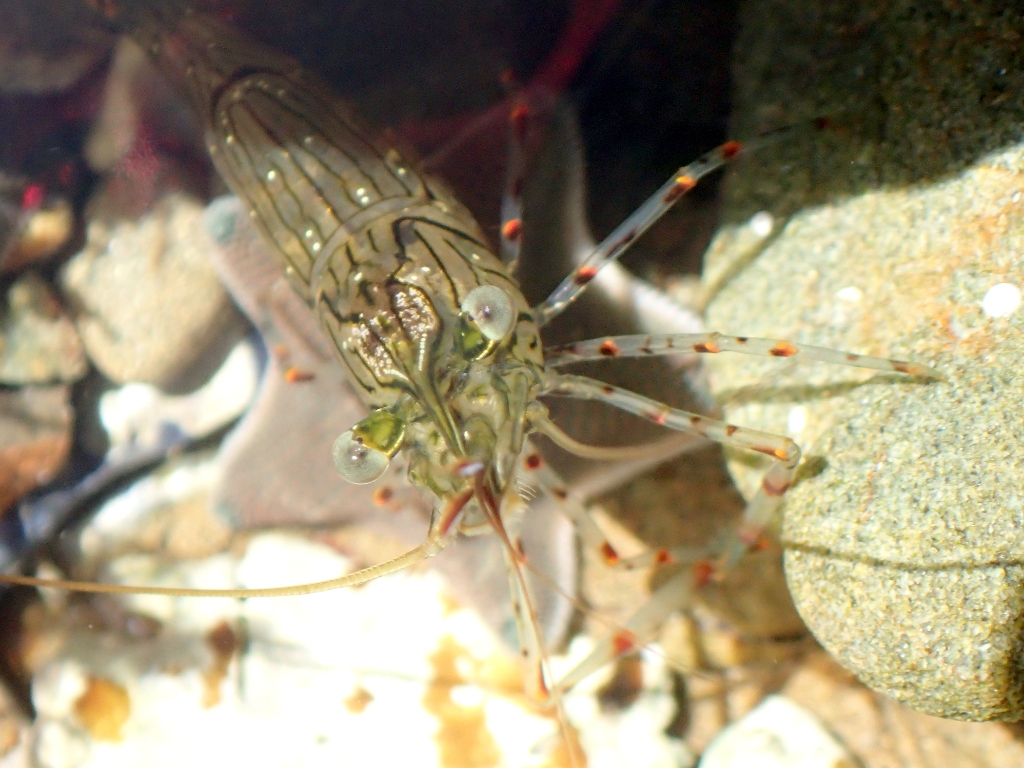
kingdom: Animalia
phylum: Arthropoda
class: Malacostraca
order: Decapoda
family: Palaemonidae
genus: Palaemon
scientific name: Palaemon affinis
